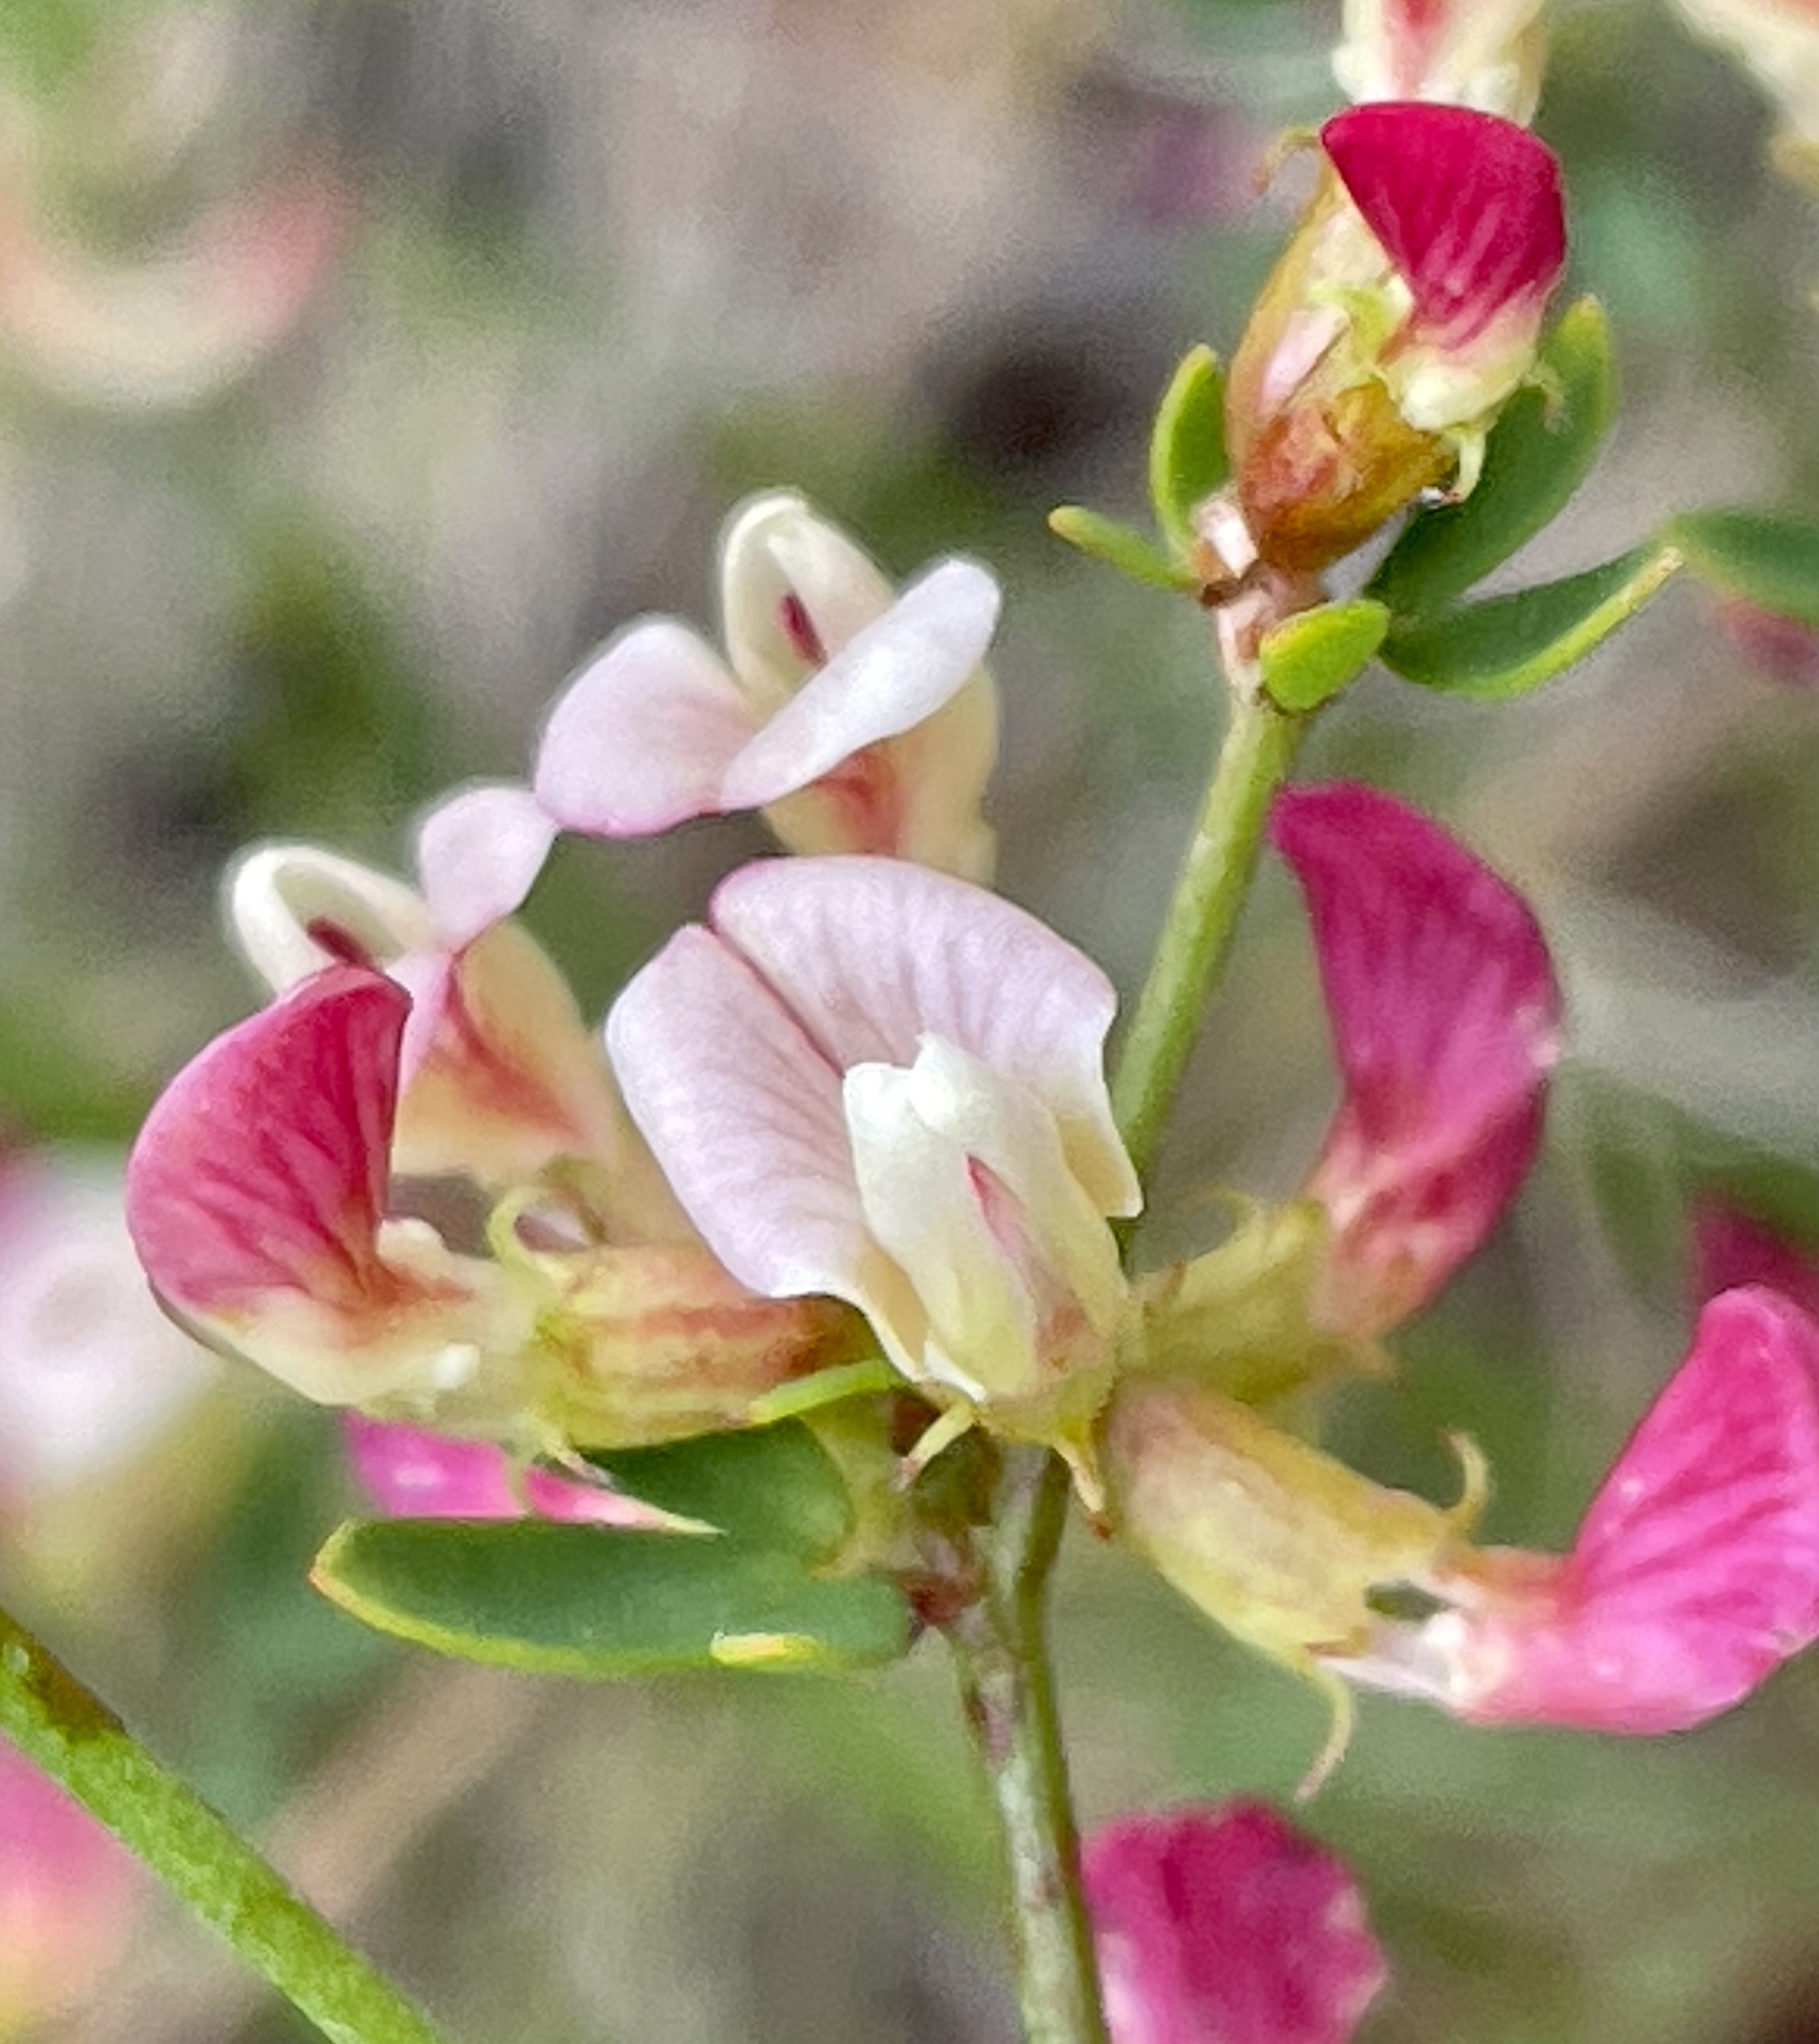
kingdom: Plantae
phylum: Tracheophyta
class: Magnoliopsida
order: Fabales
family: Fabaceae
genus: Acmispon
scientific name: Acmispon cytisoides
